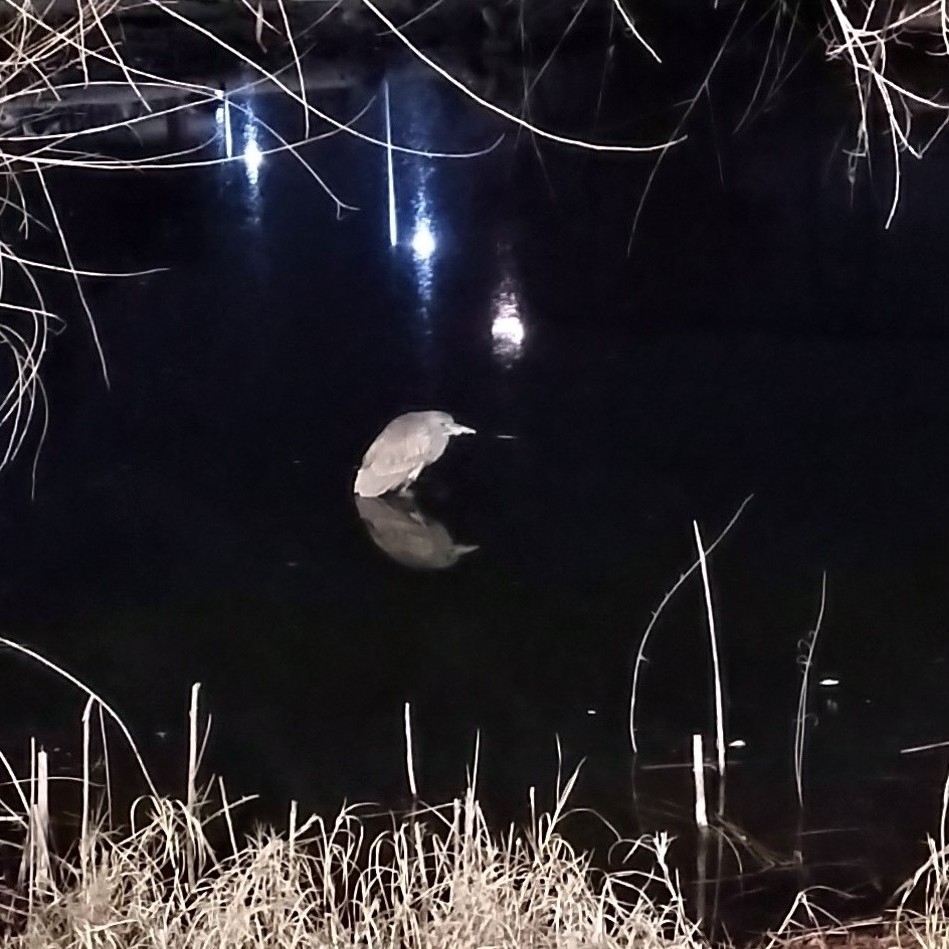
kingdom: Animalia
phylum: Chordata
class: Aves
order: Pelecaniformes
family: Ardeidae
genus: Nycticorax
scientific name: Nycticorax nycticorax
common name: Black-crowned night heron
